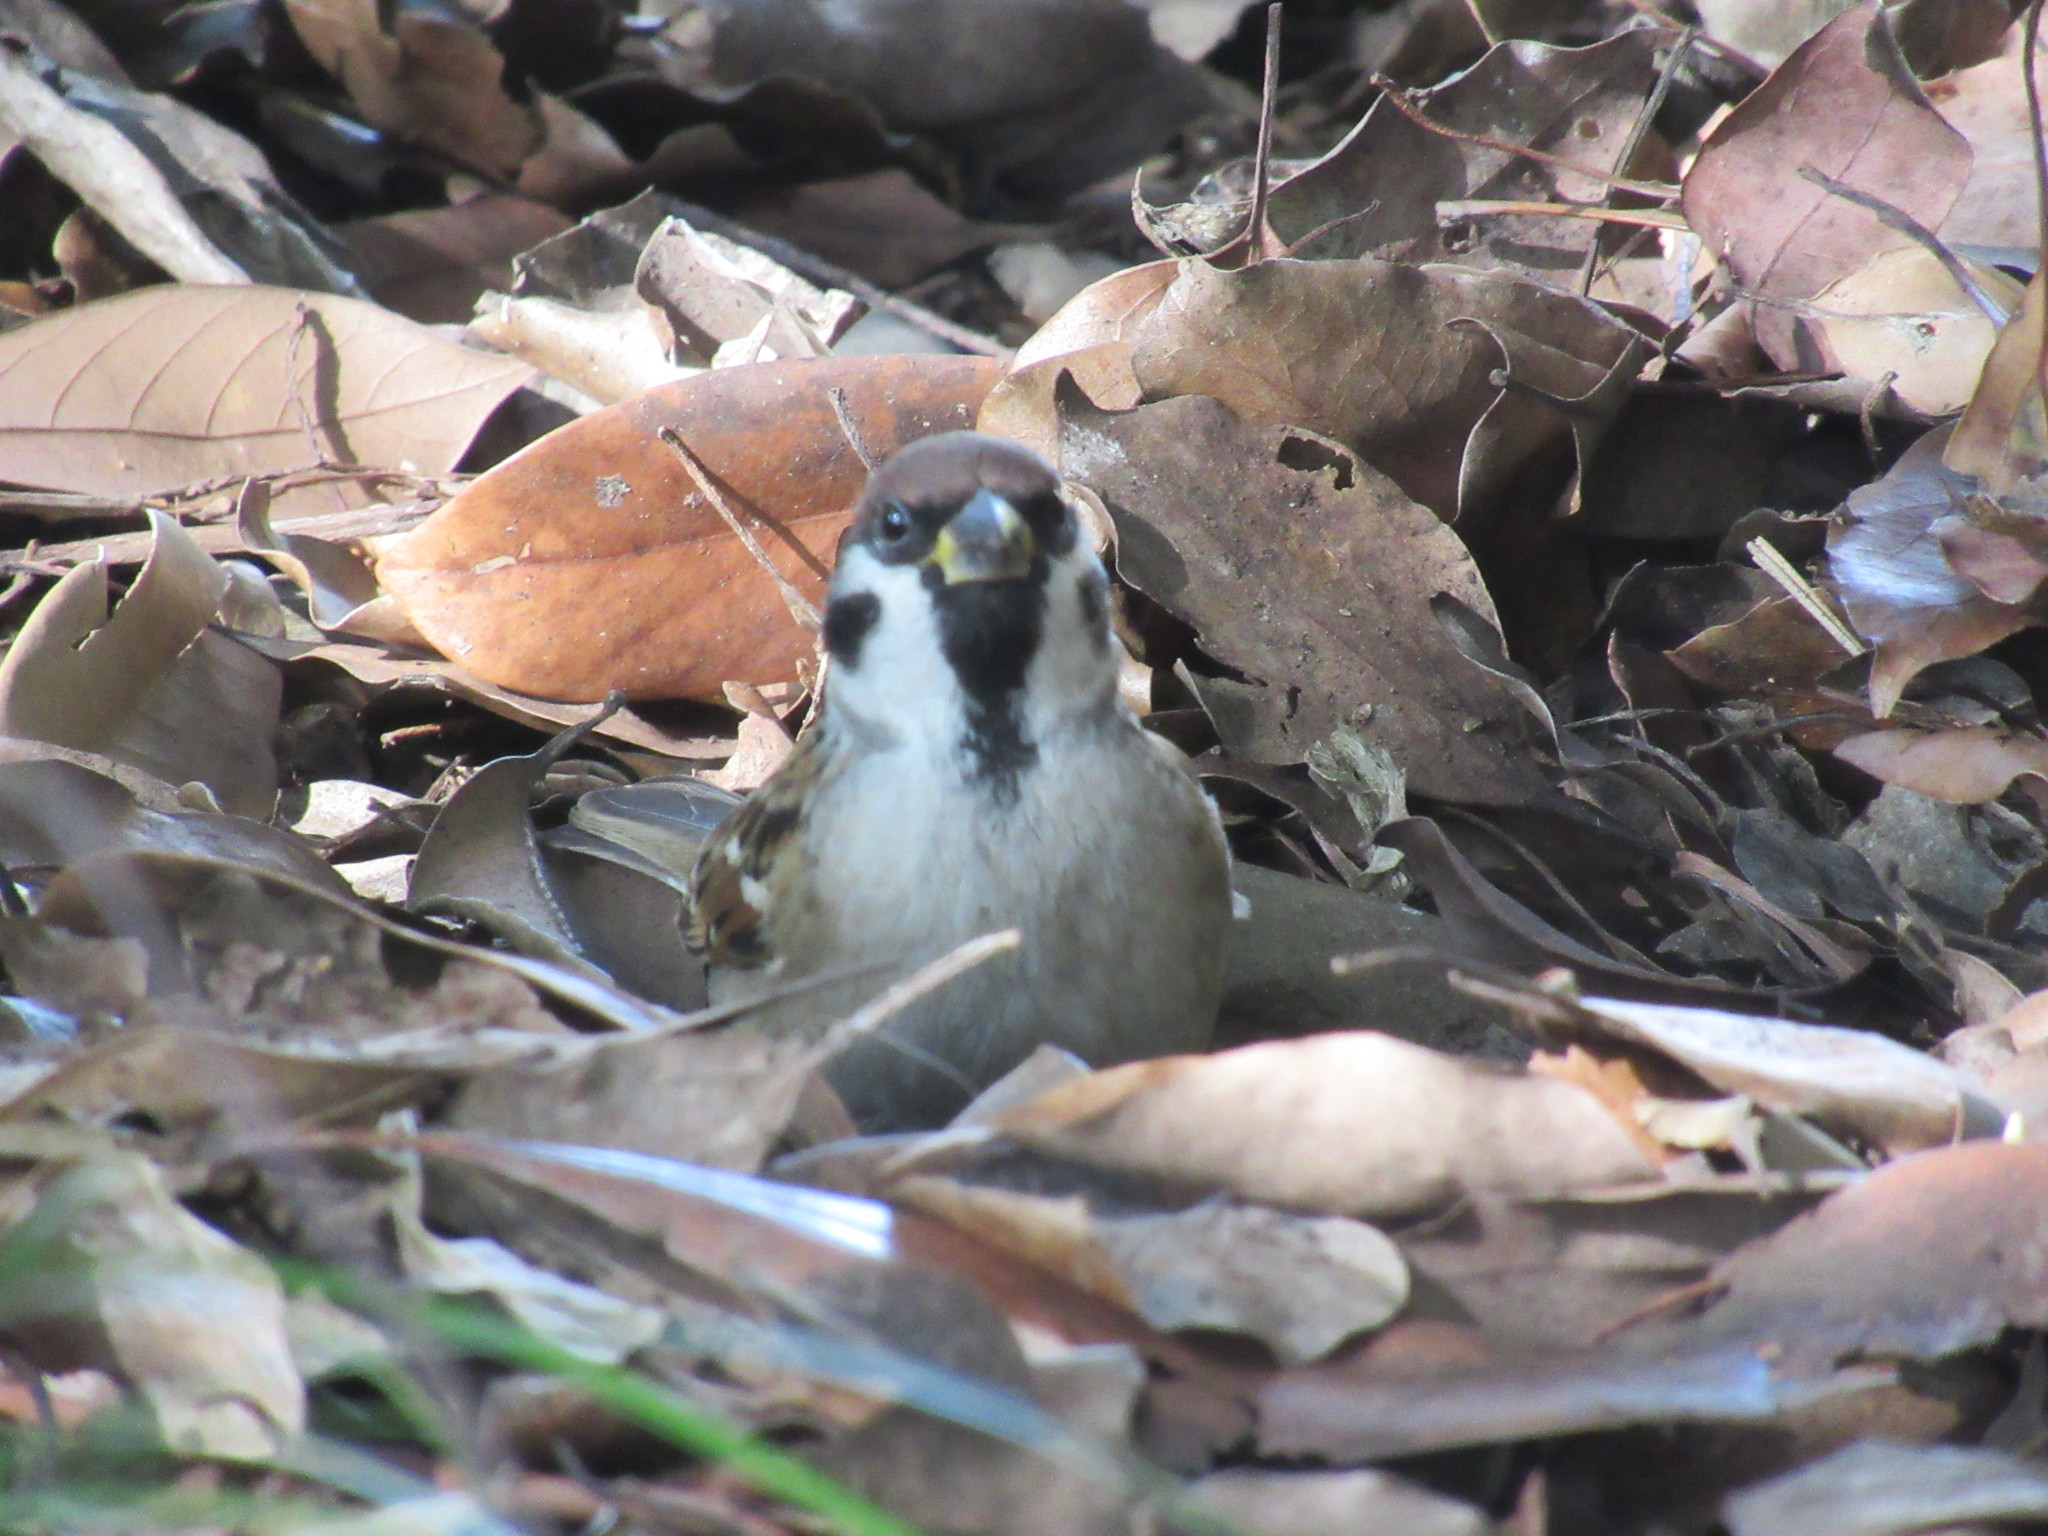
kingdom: Animalia
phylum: Chordata
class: Aves
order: Passeriformes
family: Passeridae
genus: Passer
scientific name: Passer montanus
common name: Eurasian tree sparrow
